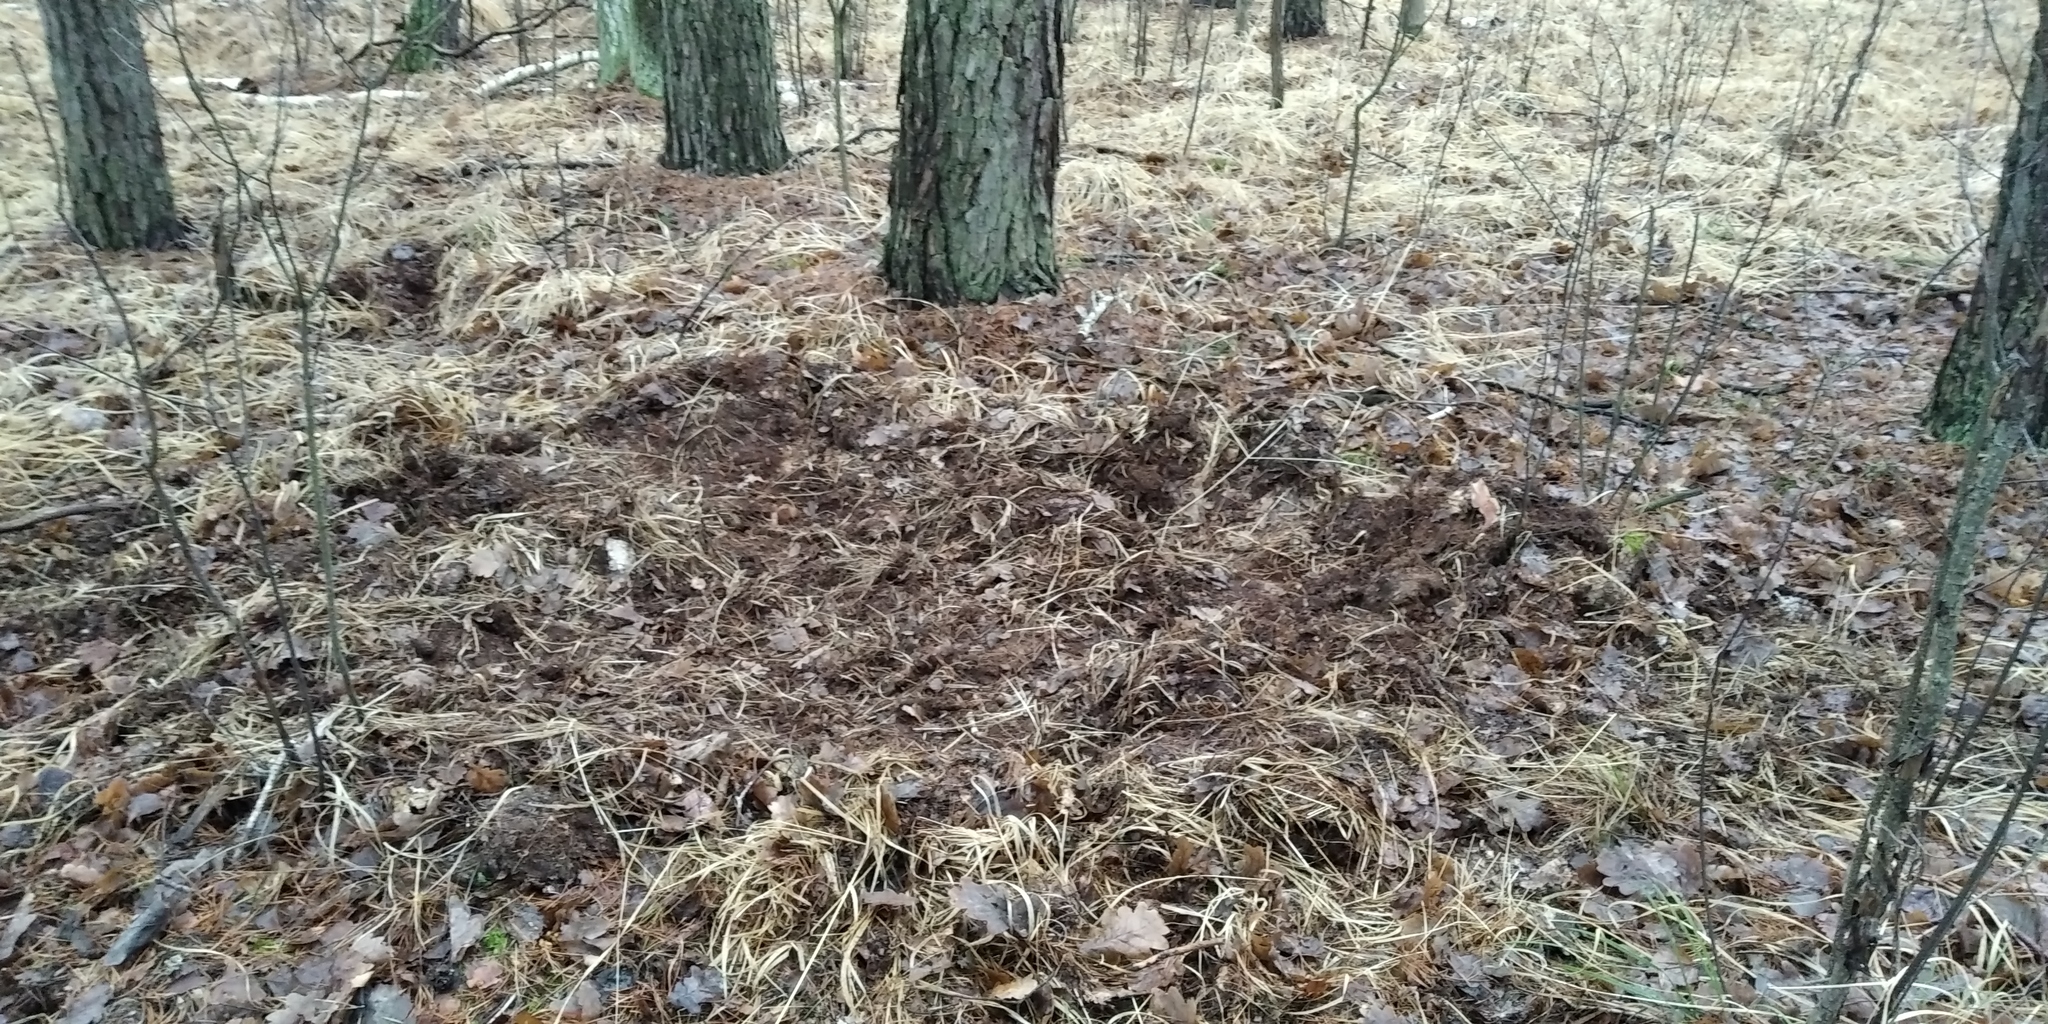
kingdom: Animalia
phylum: Chordata
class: Mammalia
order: Artiodactyla
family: Suidae
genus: Sus
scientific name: Sus scrofa
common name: Wild boar
